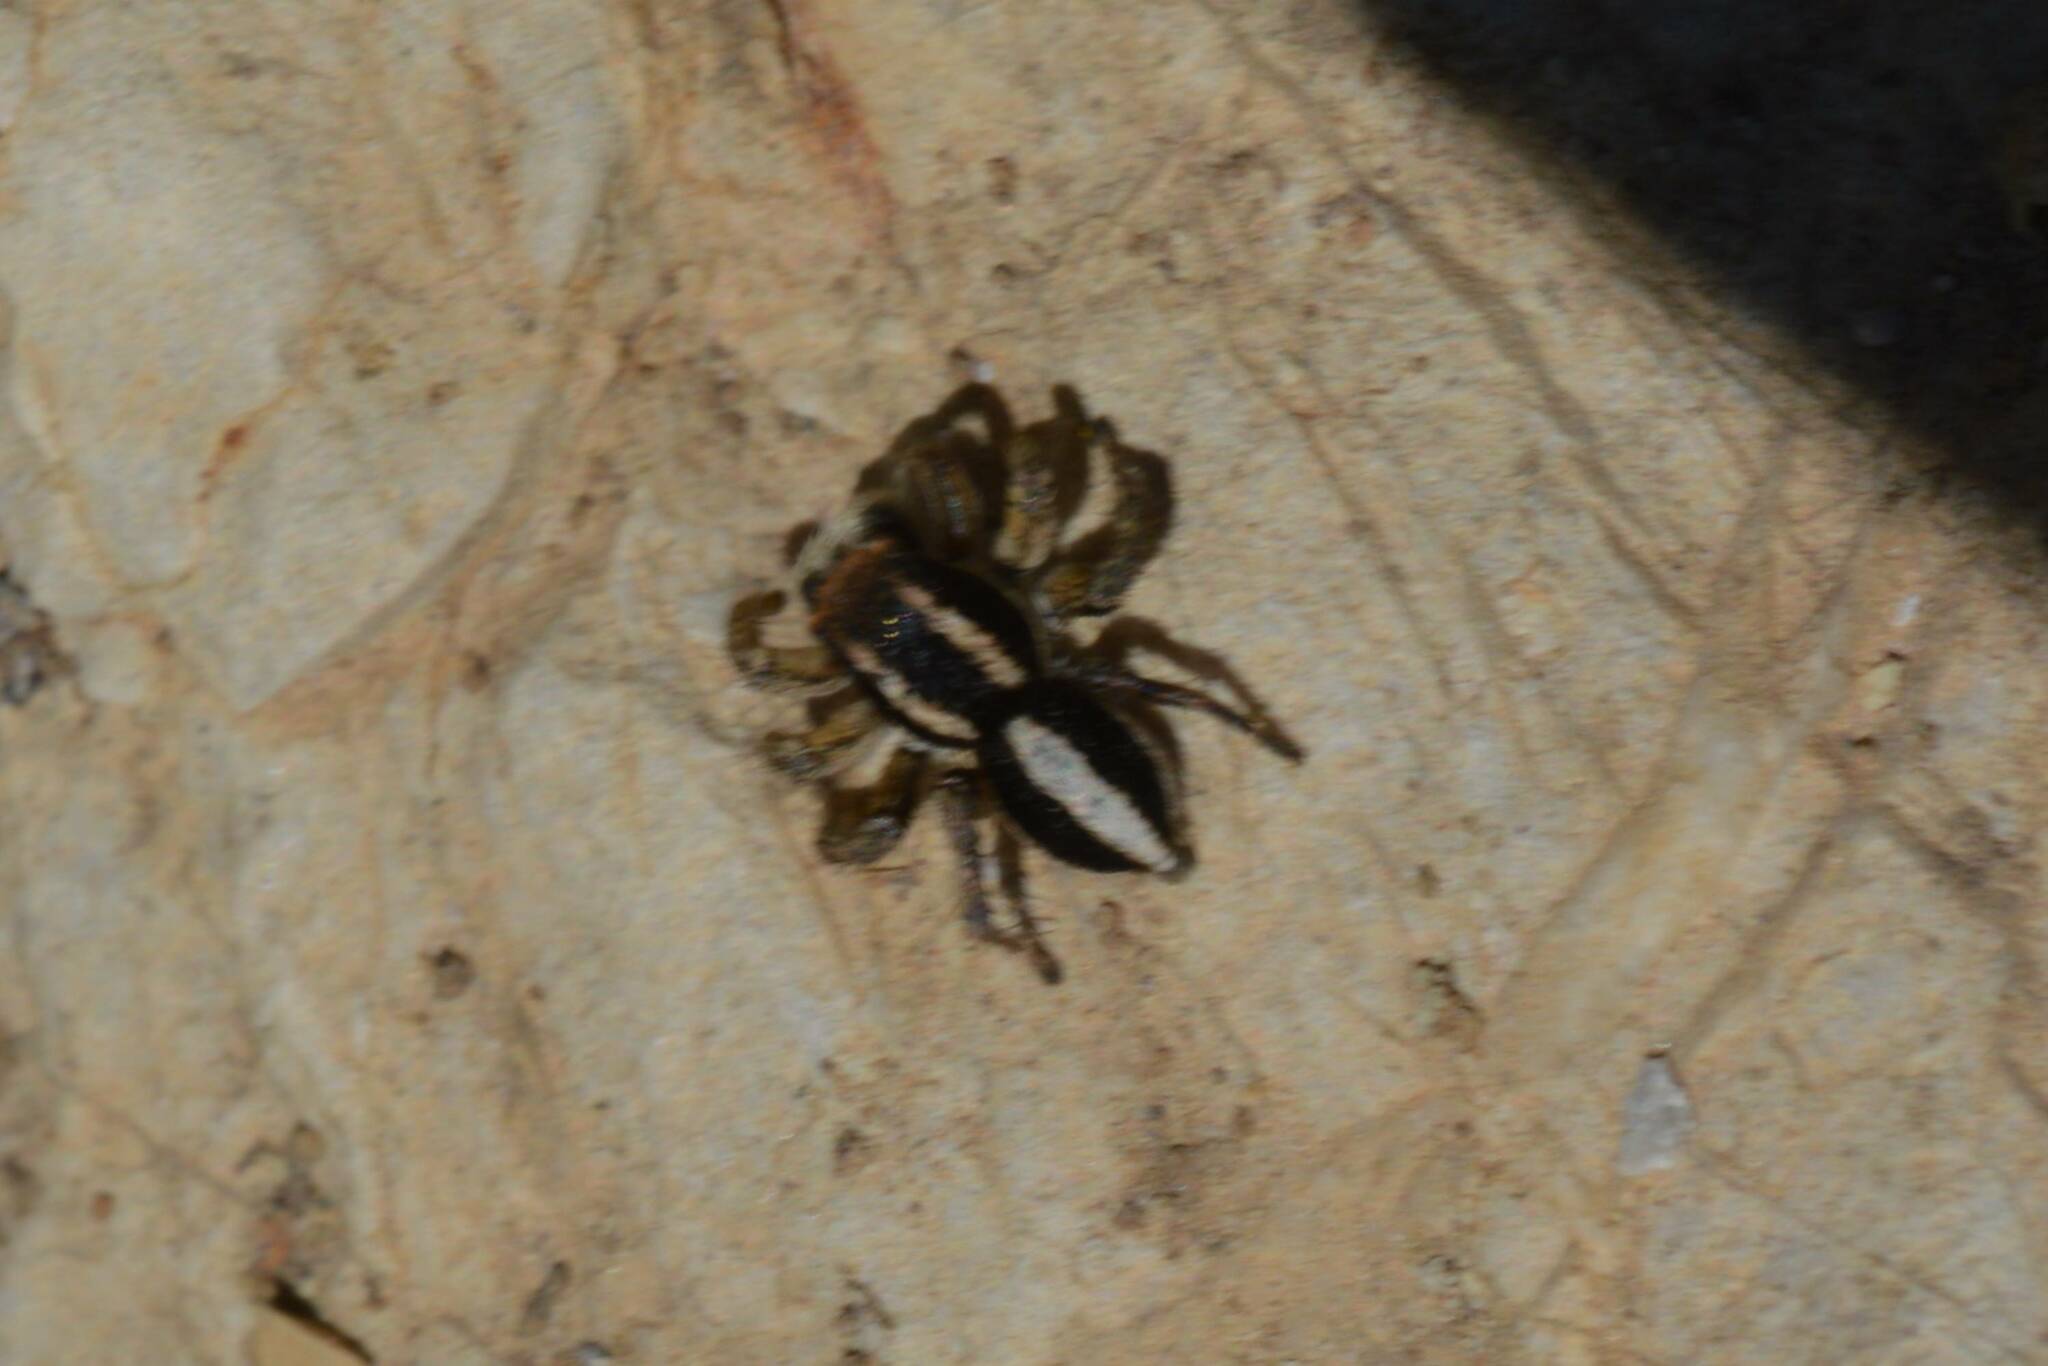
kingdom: Animalia
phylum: Arthropoda
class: Arachnida
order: Araneae
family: Salticidae
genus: Aelurillus
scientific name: Aelurillus luctuosus
